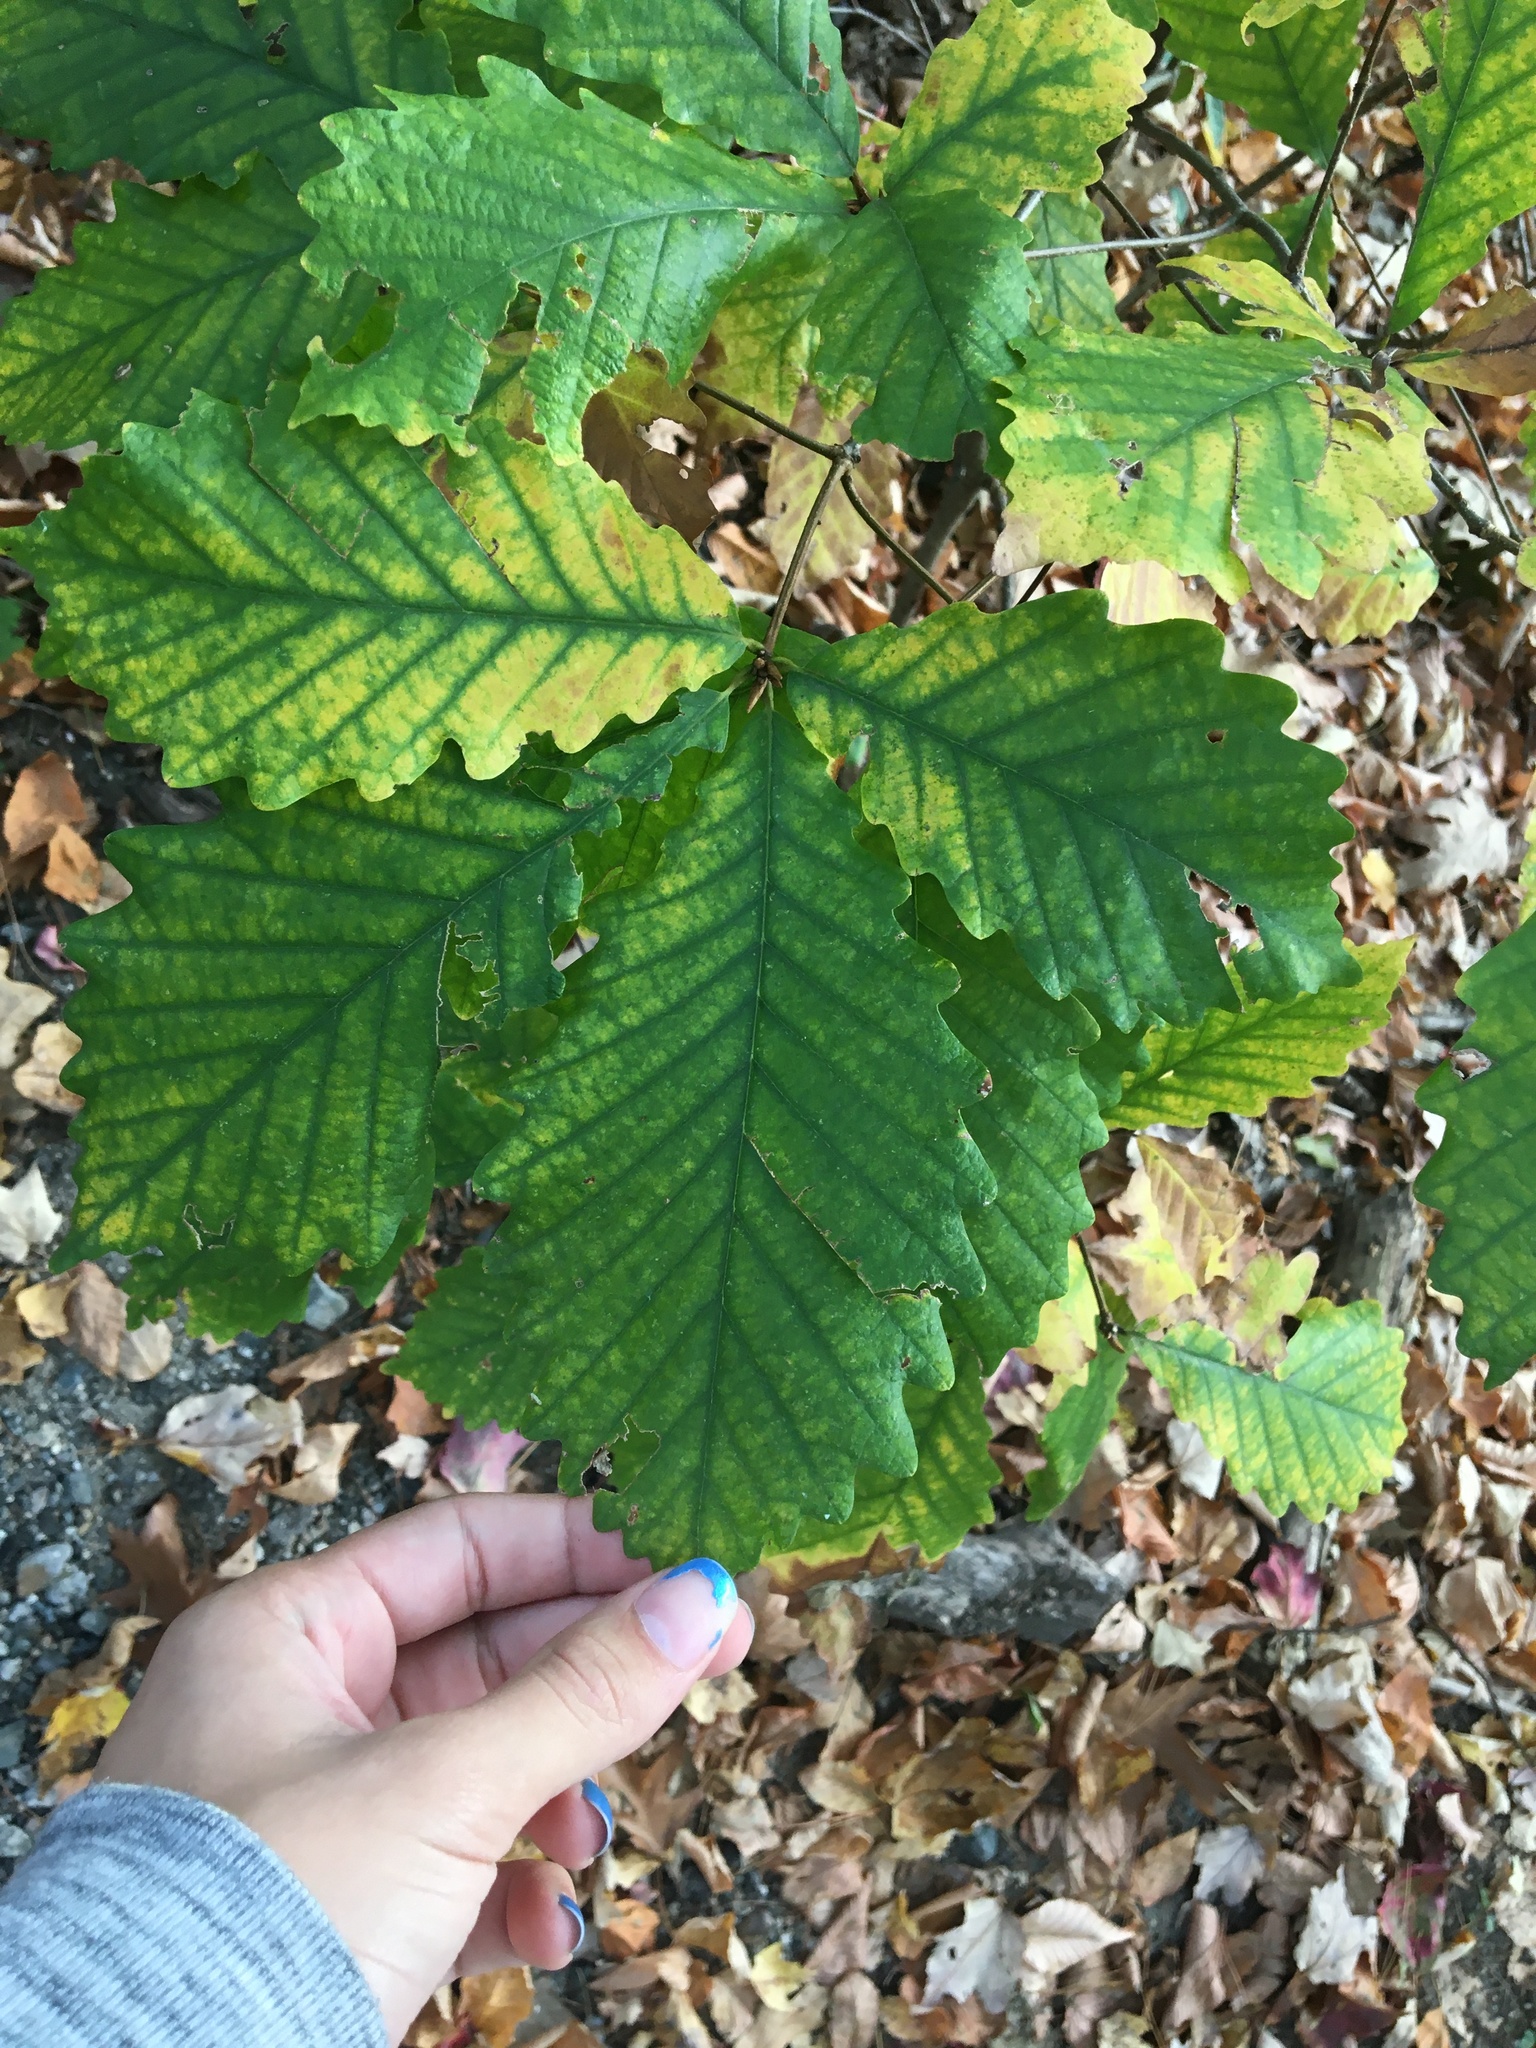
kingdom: Plantae
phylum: Tracheophyta
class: Magnoliopsida
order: Fagales
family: Fagaceae
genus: Quercus
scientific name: Quercus montana
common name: Chestnut oak
